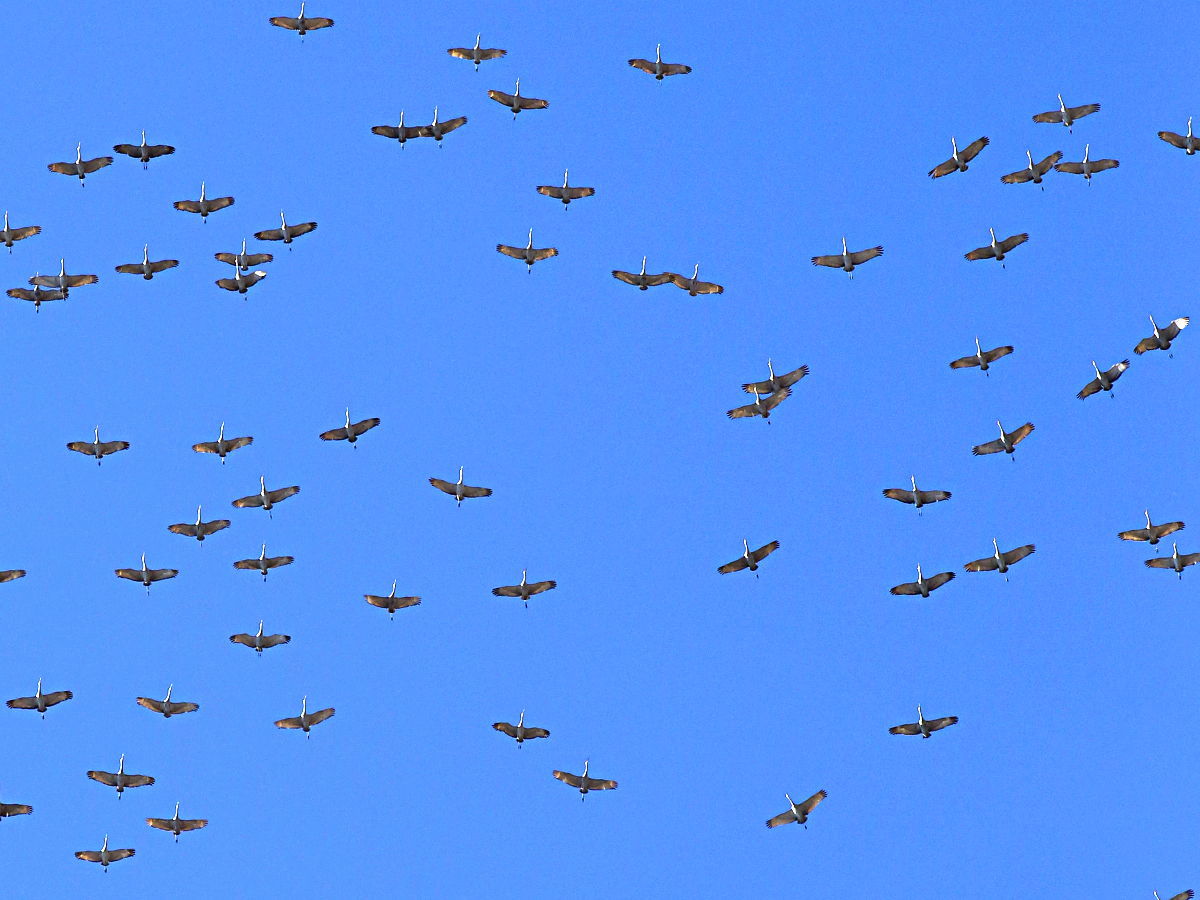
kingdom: Animalia
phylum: Chordata
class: Aves
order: Gruiformes
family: Gruidae
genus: Grus
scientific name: Grus canadensis
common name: Sandhill crane
